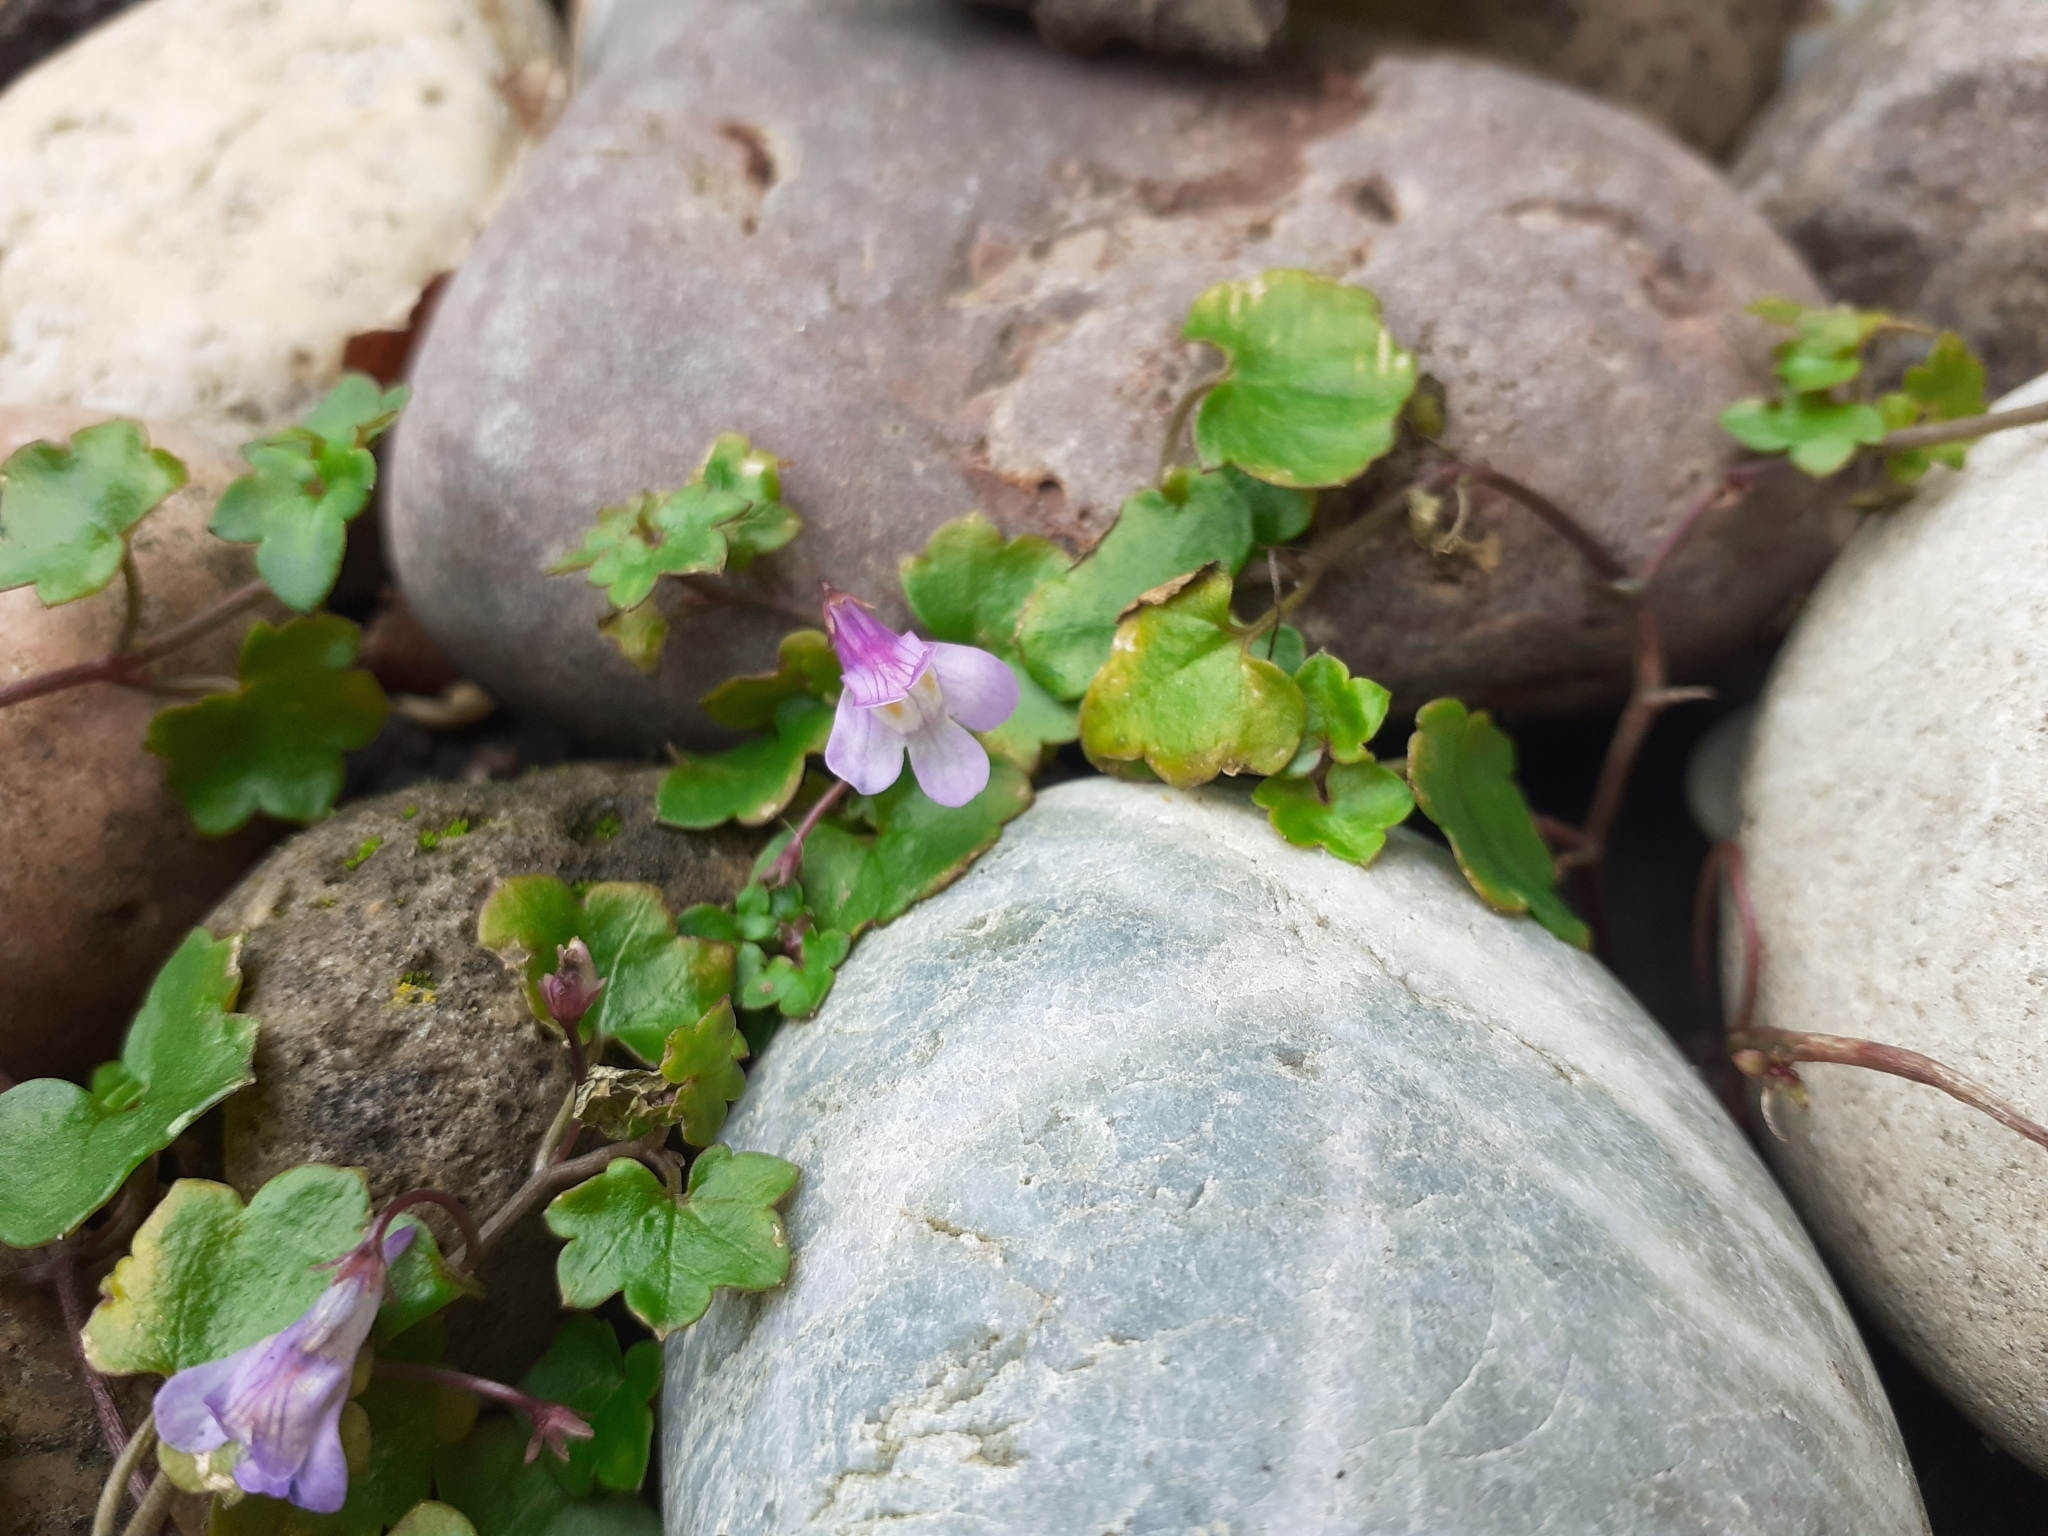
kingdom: Plantae
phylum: Tracheophyta
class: Magnoliopsida
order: Lamiales
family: Plantaginaceae
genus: Cymbalaria
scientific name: Cymbalaria muralis
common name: Ivy-leaved toadflax
